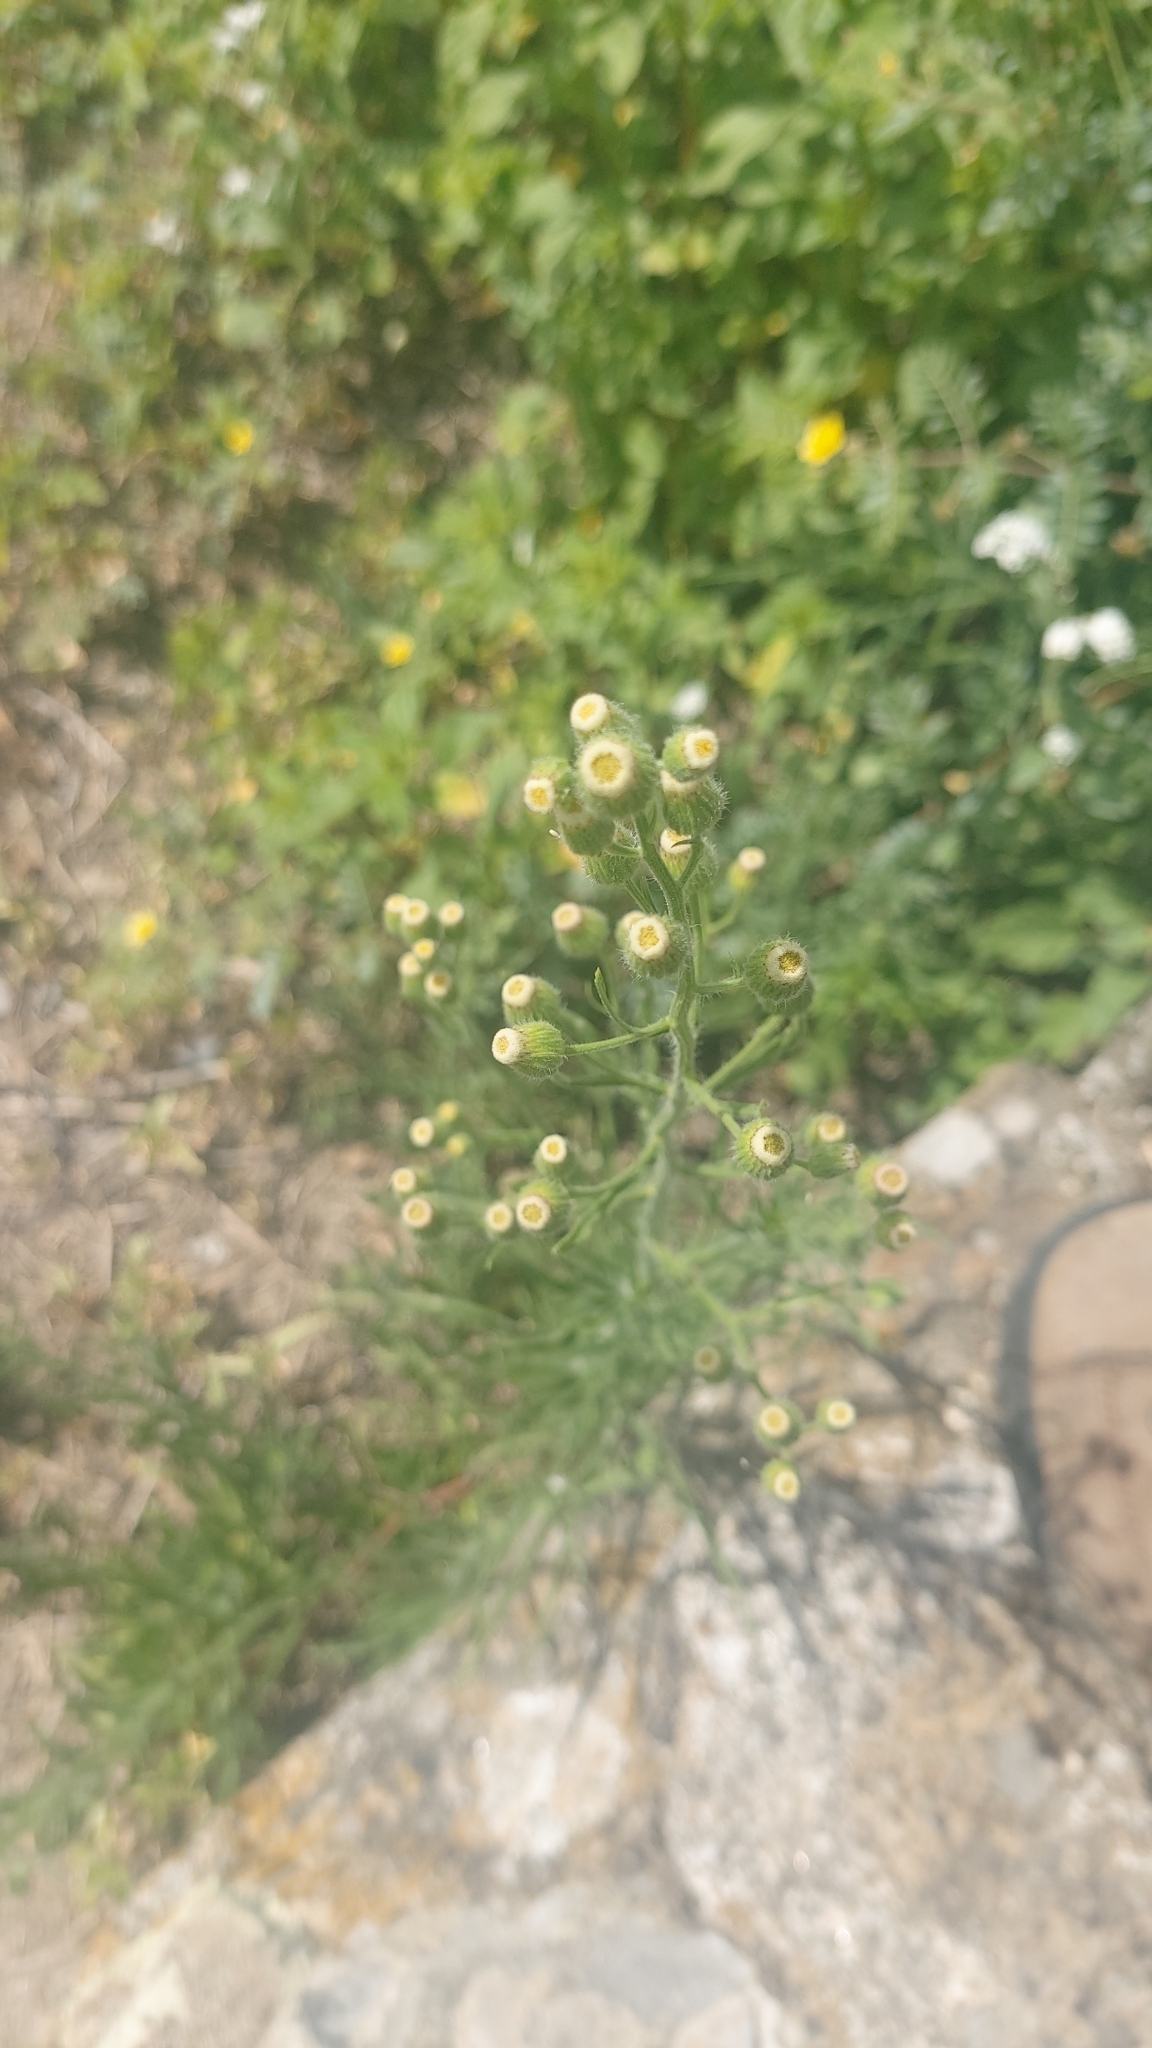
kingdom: Plantae
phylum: Tracheophyta
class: Magnoliopsida
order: Asterales
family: Asteraceae
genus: Erigeron
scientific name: Erigeron bonariensis
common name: Argentine fleabane
